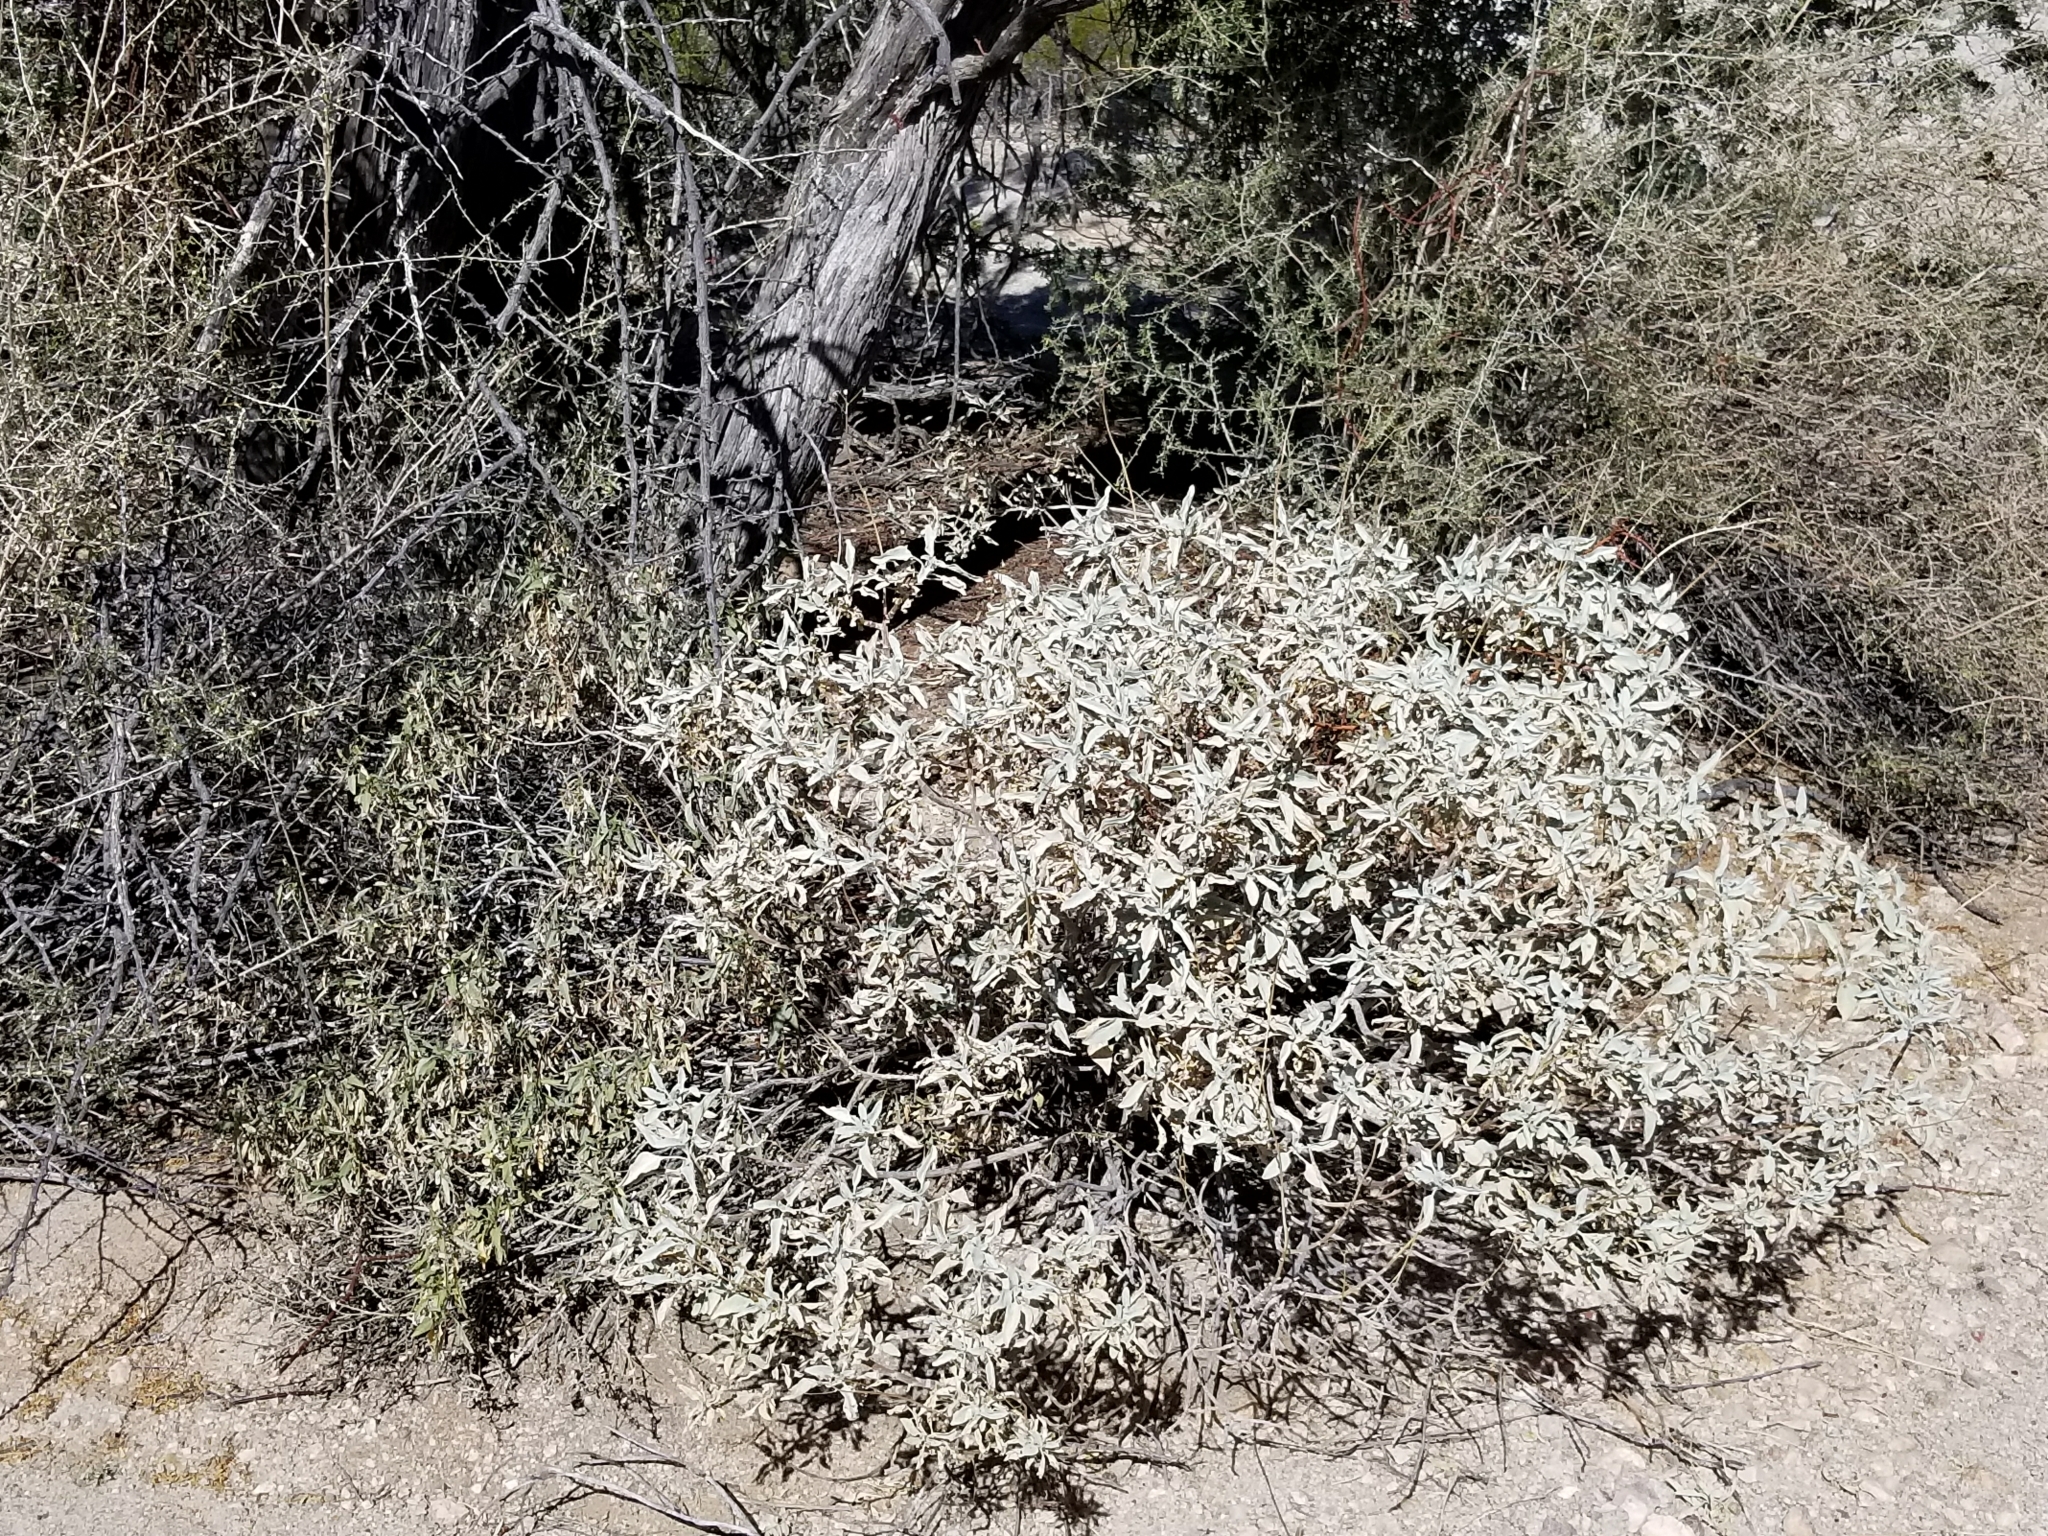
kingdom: Plantae
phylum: Tracheophyta
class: Magnoliopsida
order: Asterales
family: Asteraceae
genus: Encelia
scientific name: Encelia farinosa
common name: Brittlebush
